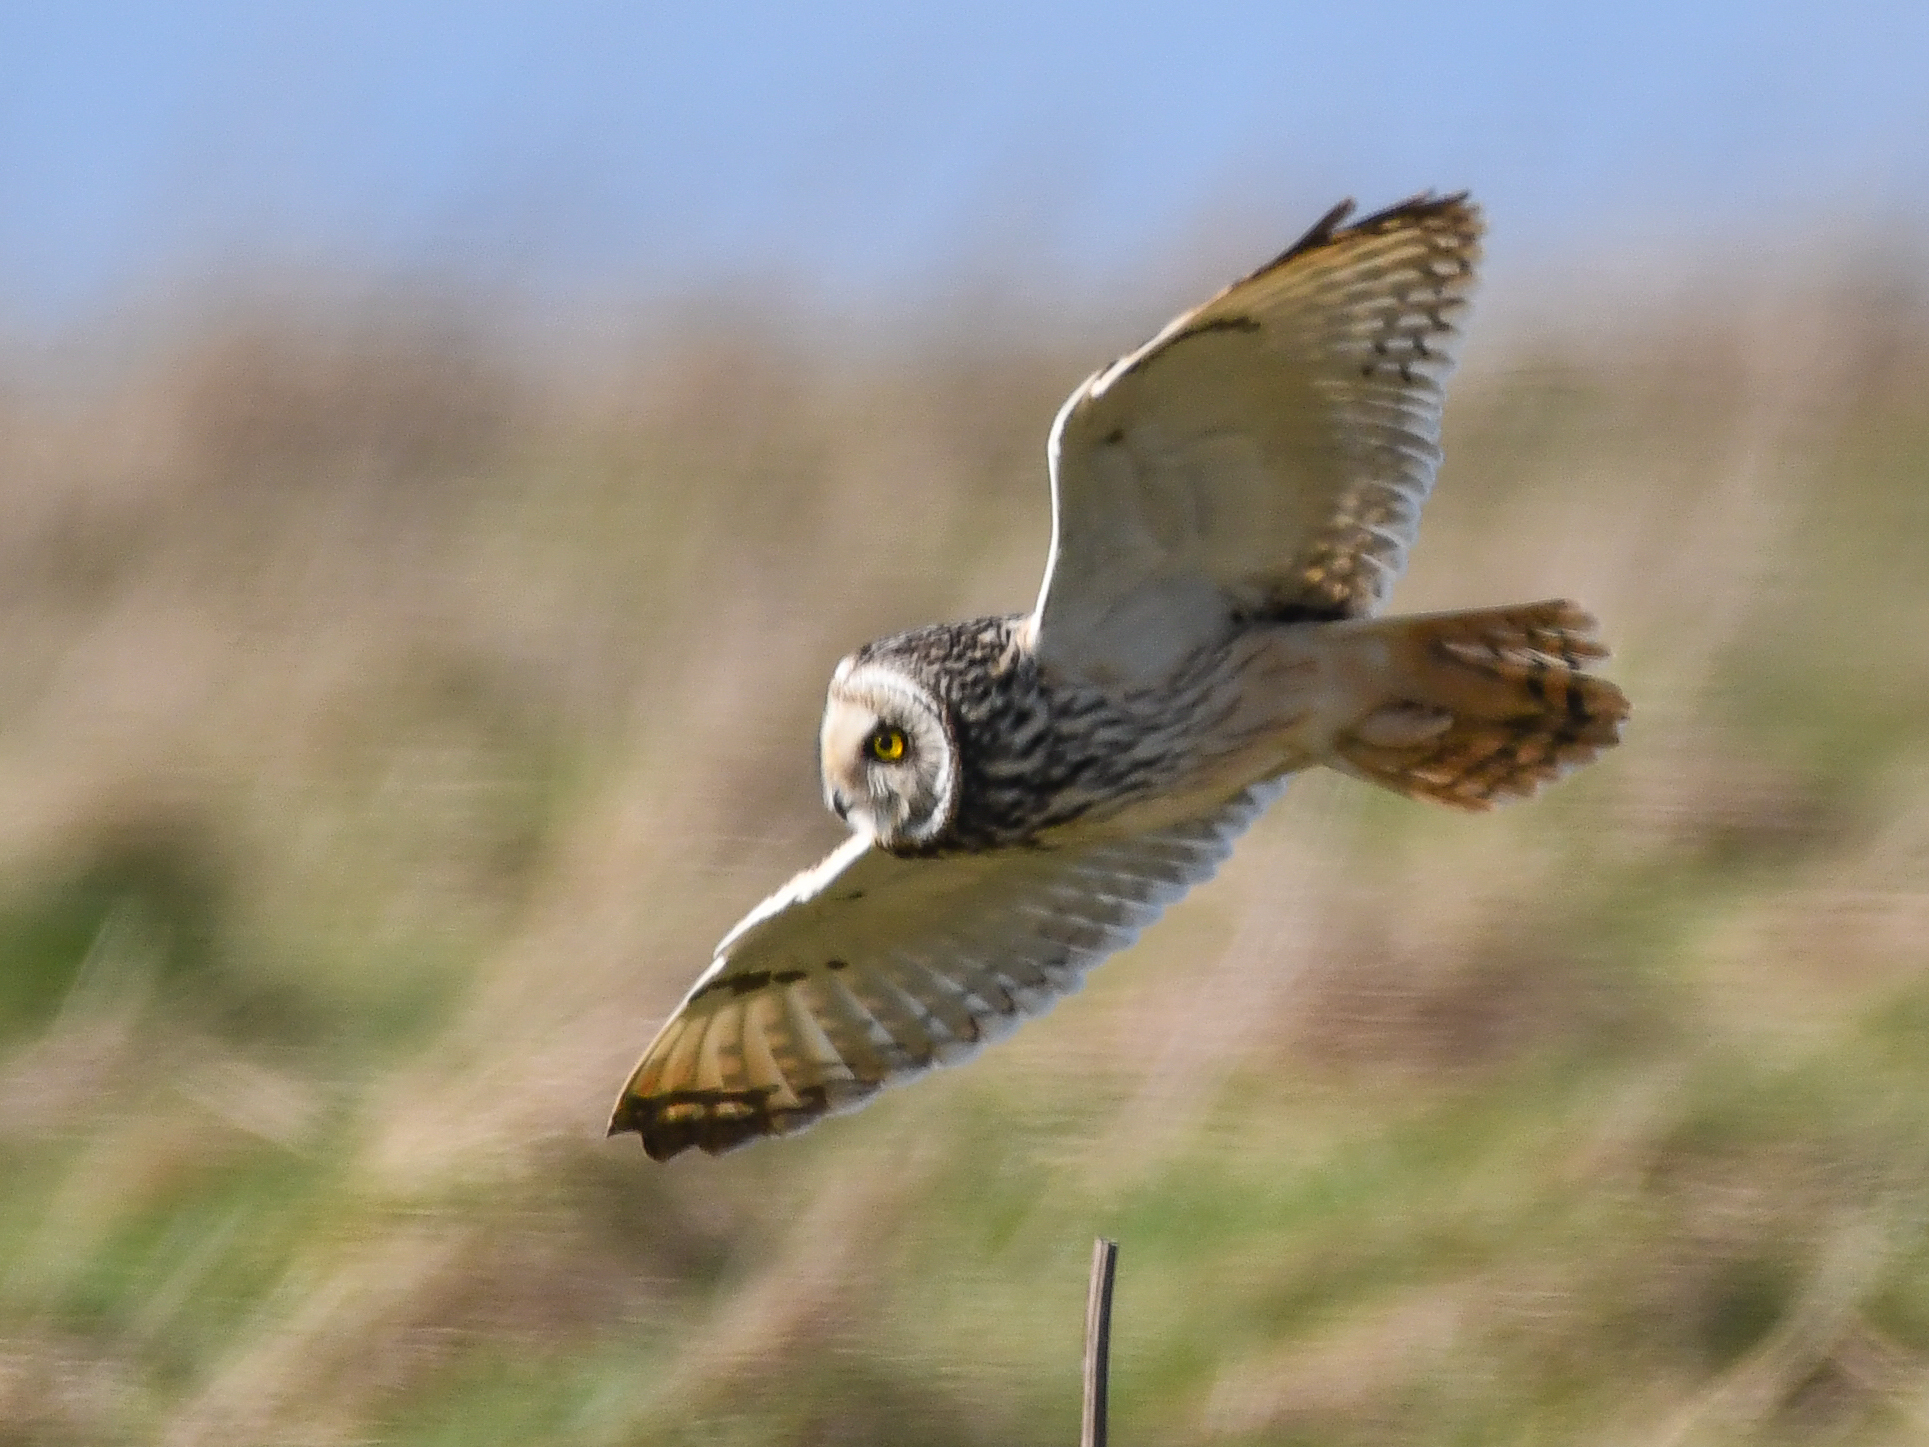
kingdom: Animalia
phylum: Chordata
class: Aves
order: Strigiformes
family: Strigidae
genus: Asio
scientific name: Asio flammeus
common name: Short-eared owl
